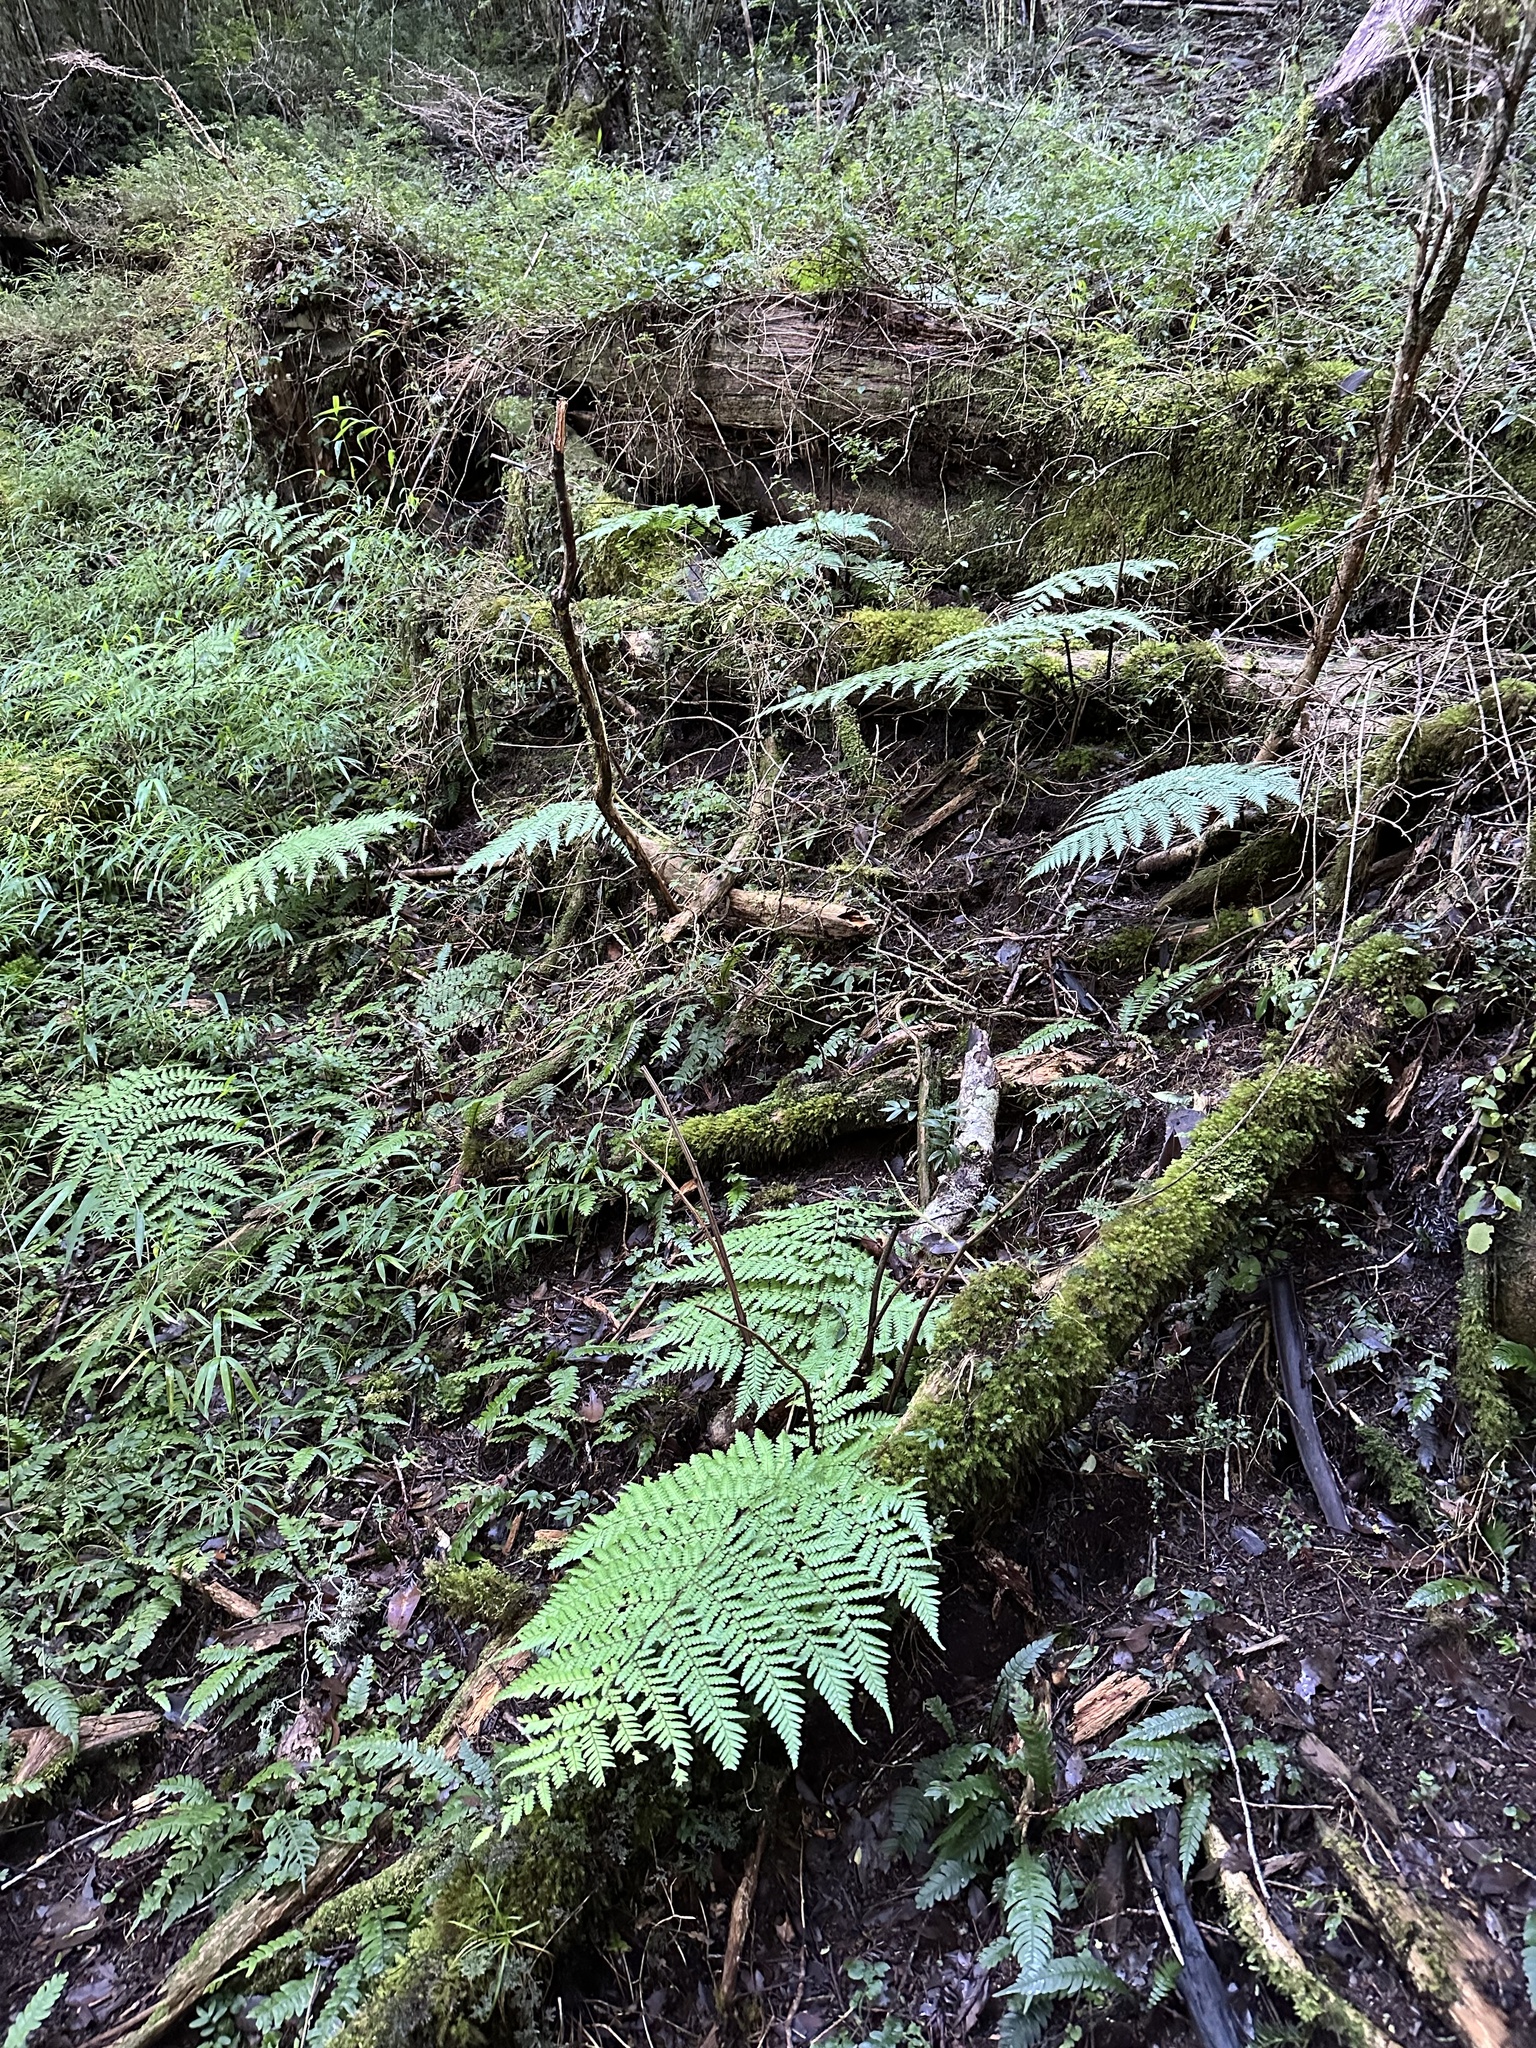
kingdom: Plantae
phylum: Tracheophyta
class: Polypodiopsida
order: Cyatheales
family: Dicksoniaceae
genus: Lophosoria
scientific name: Lophosoria quadripinnata
